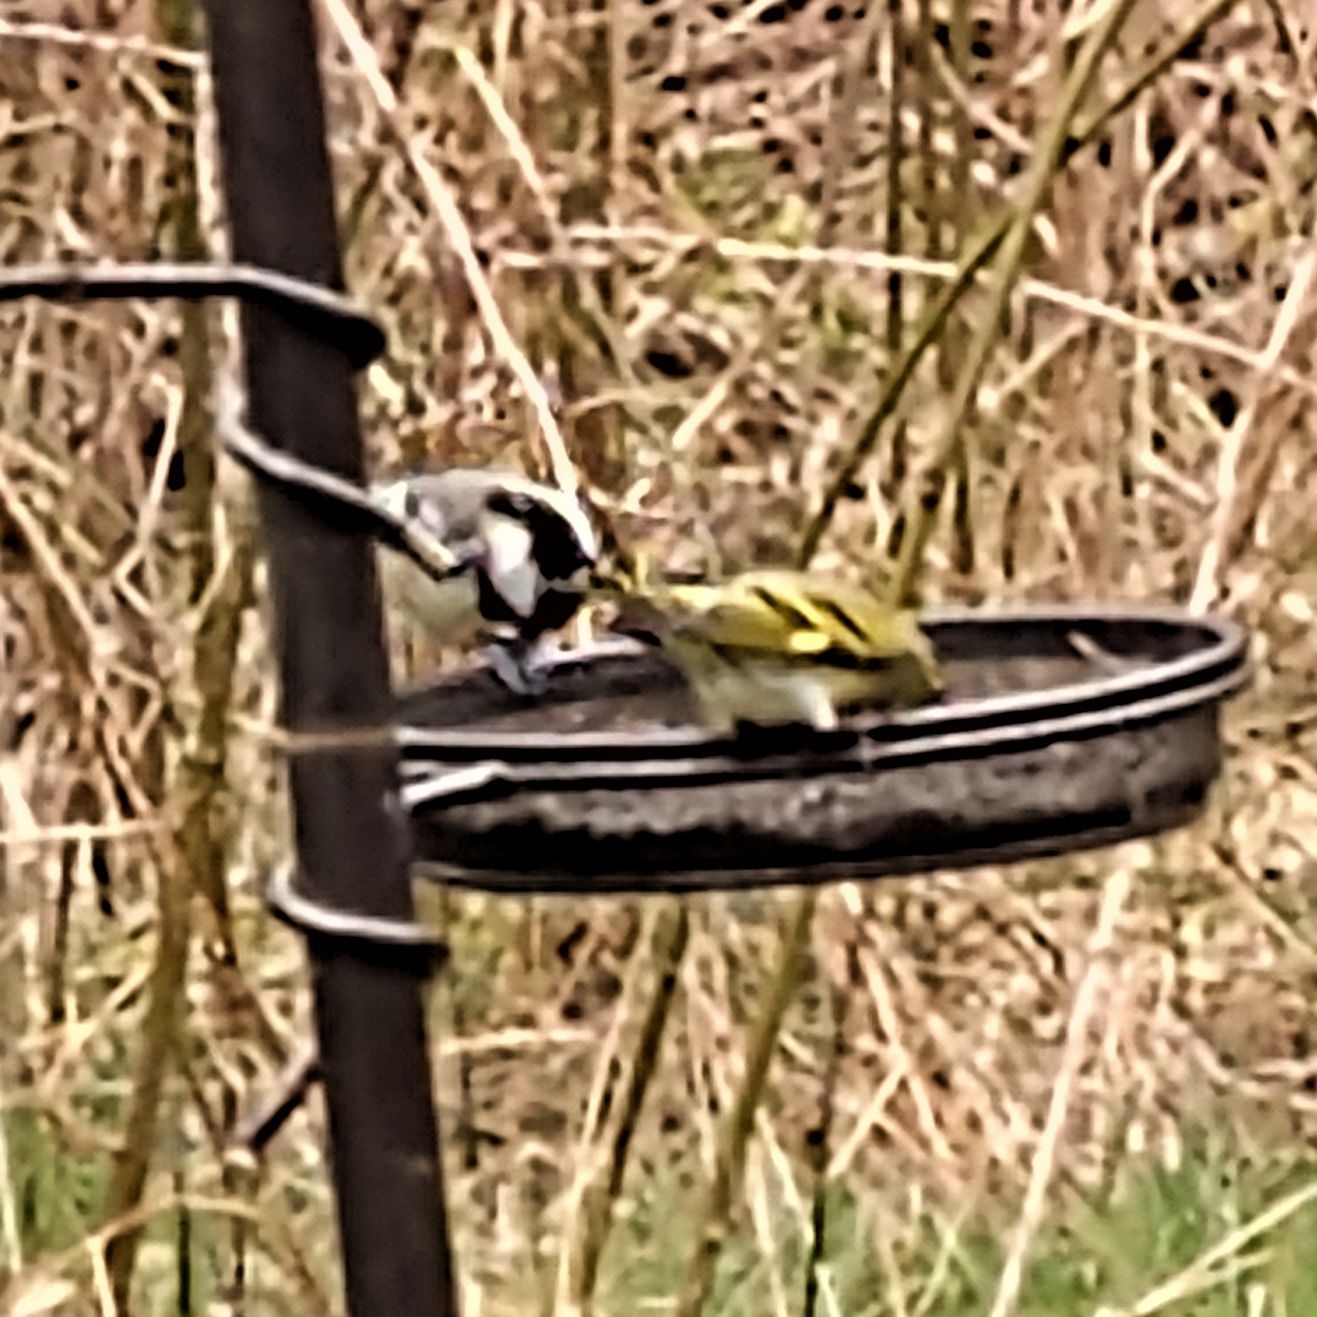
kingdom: Animalia
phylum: Chordata
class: Aves
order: Passeriformes
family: Fringillidae
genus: Spinus
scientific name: Spinus spinus
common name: Eurasian siskin
